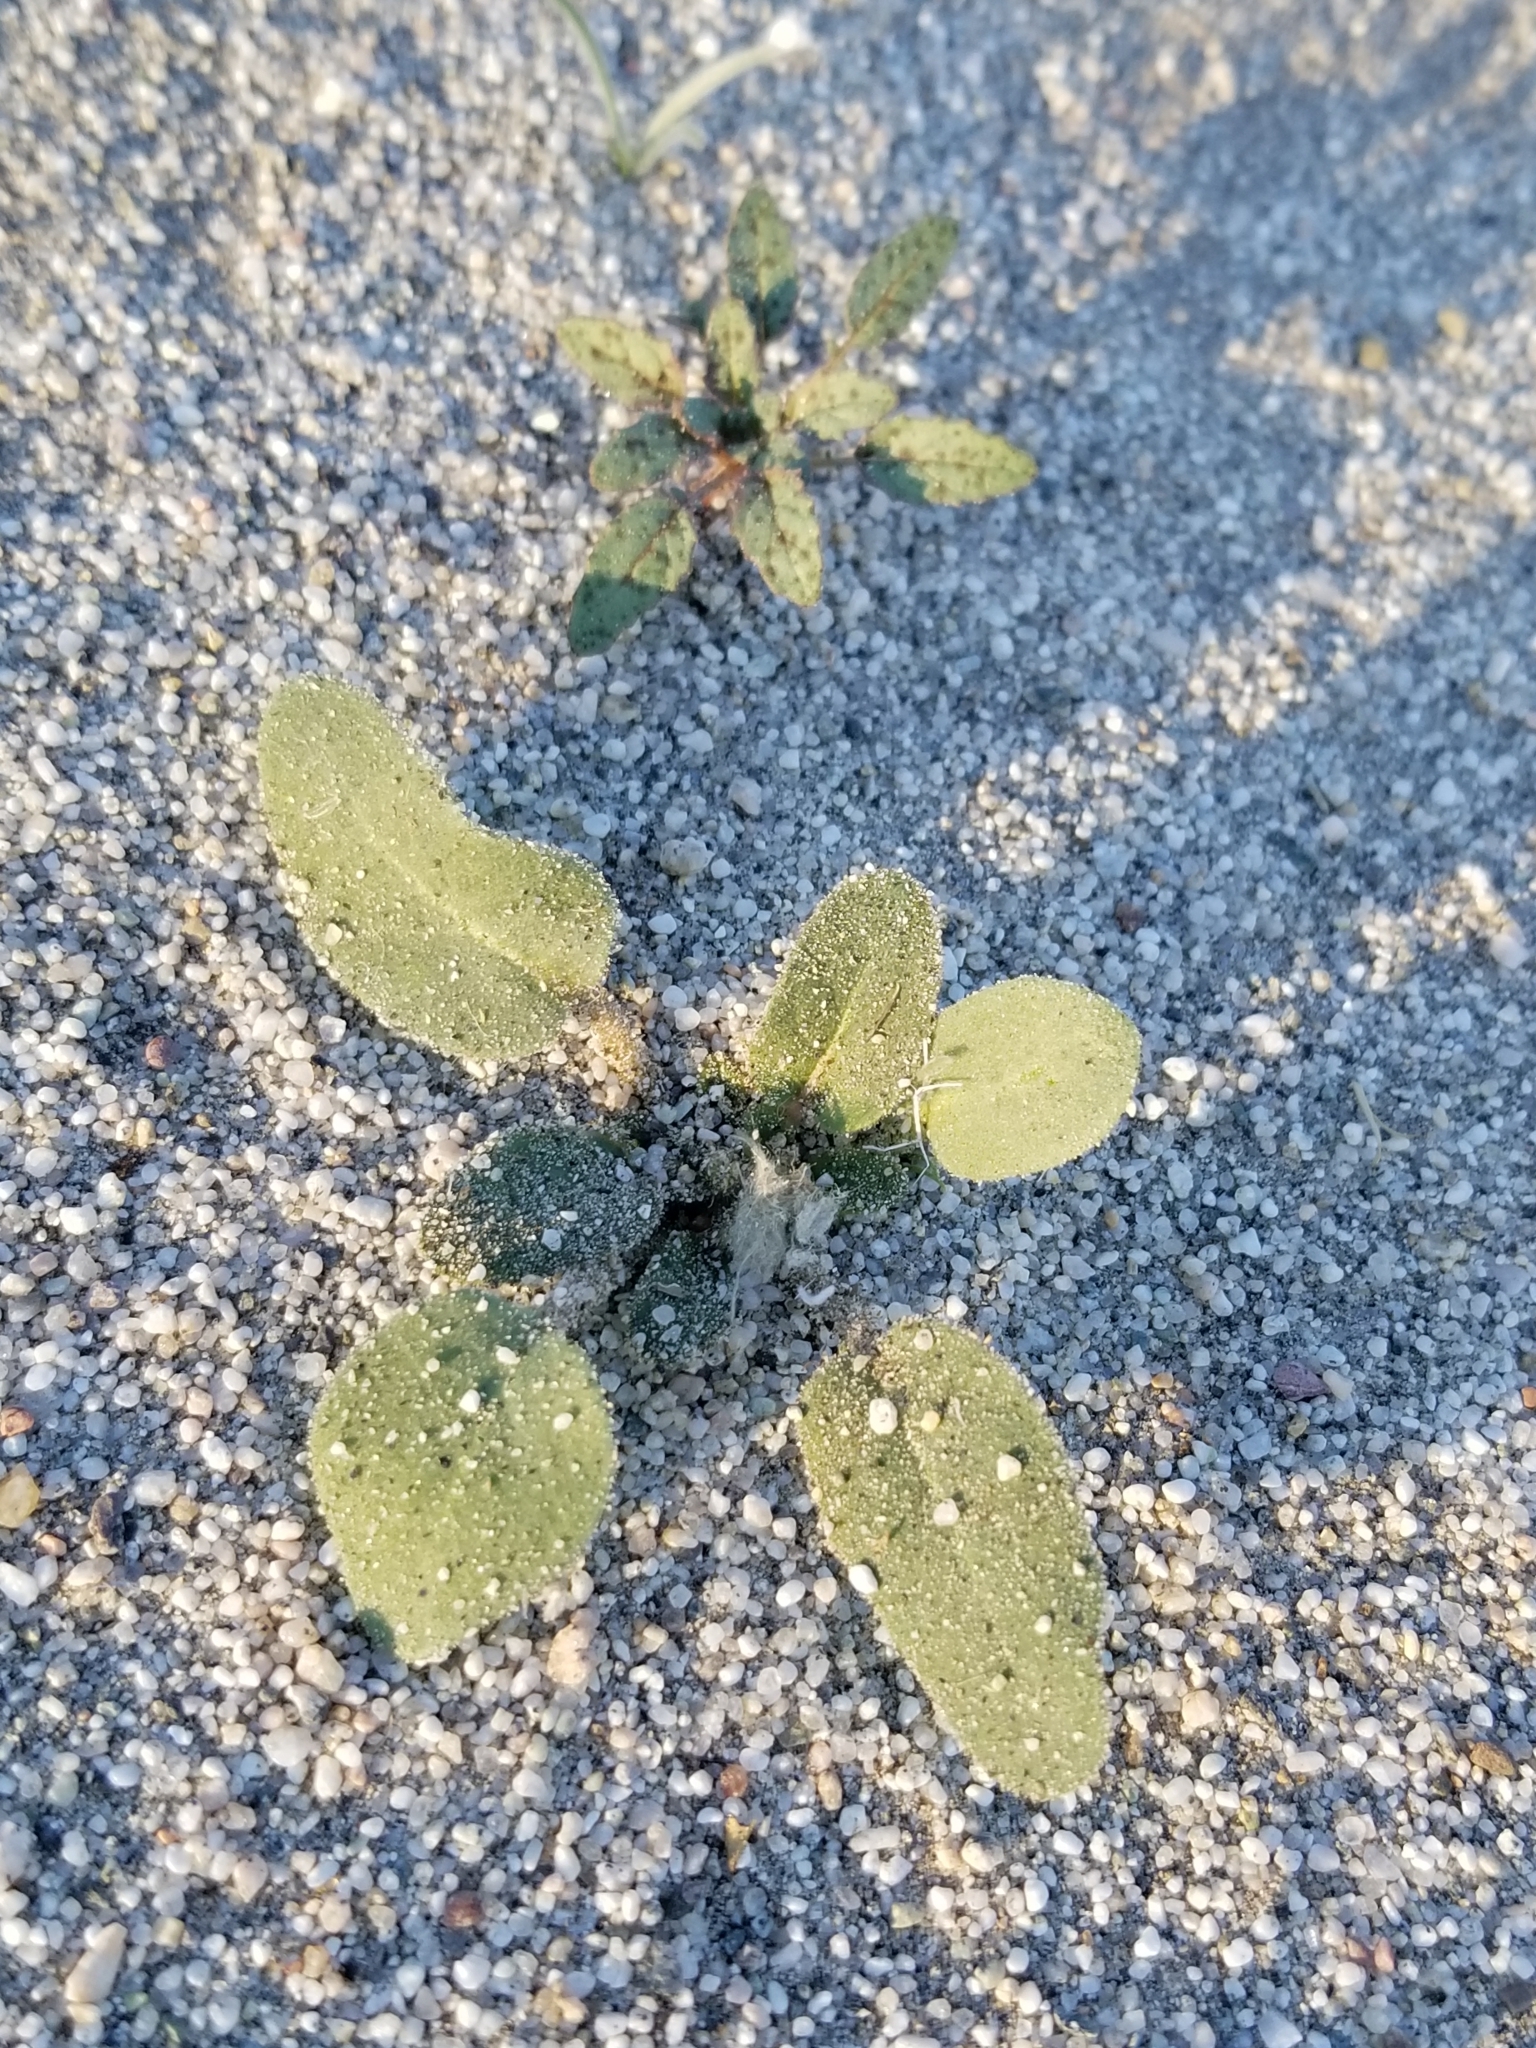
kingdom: Plantae
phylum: Tracheophyta
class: Magnoliopsida
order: Caryophyllales
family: Nyctaginaceae
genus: Abronia
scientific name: Abronia villosa
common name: Desert sand-verbena
